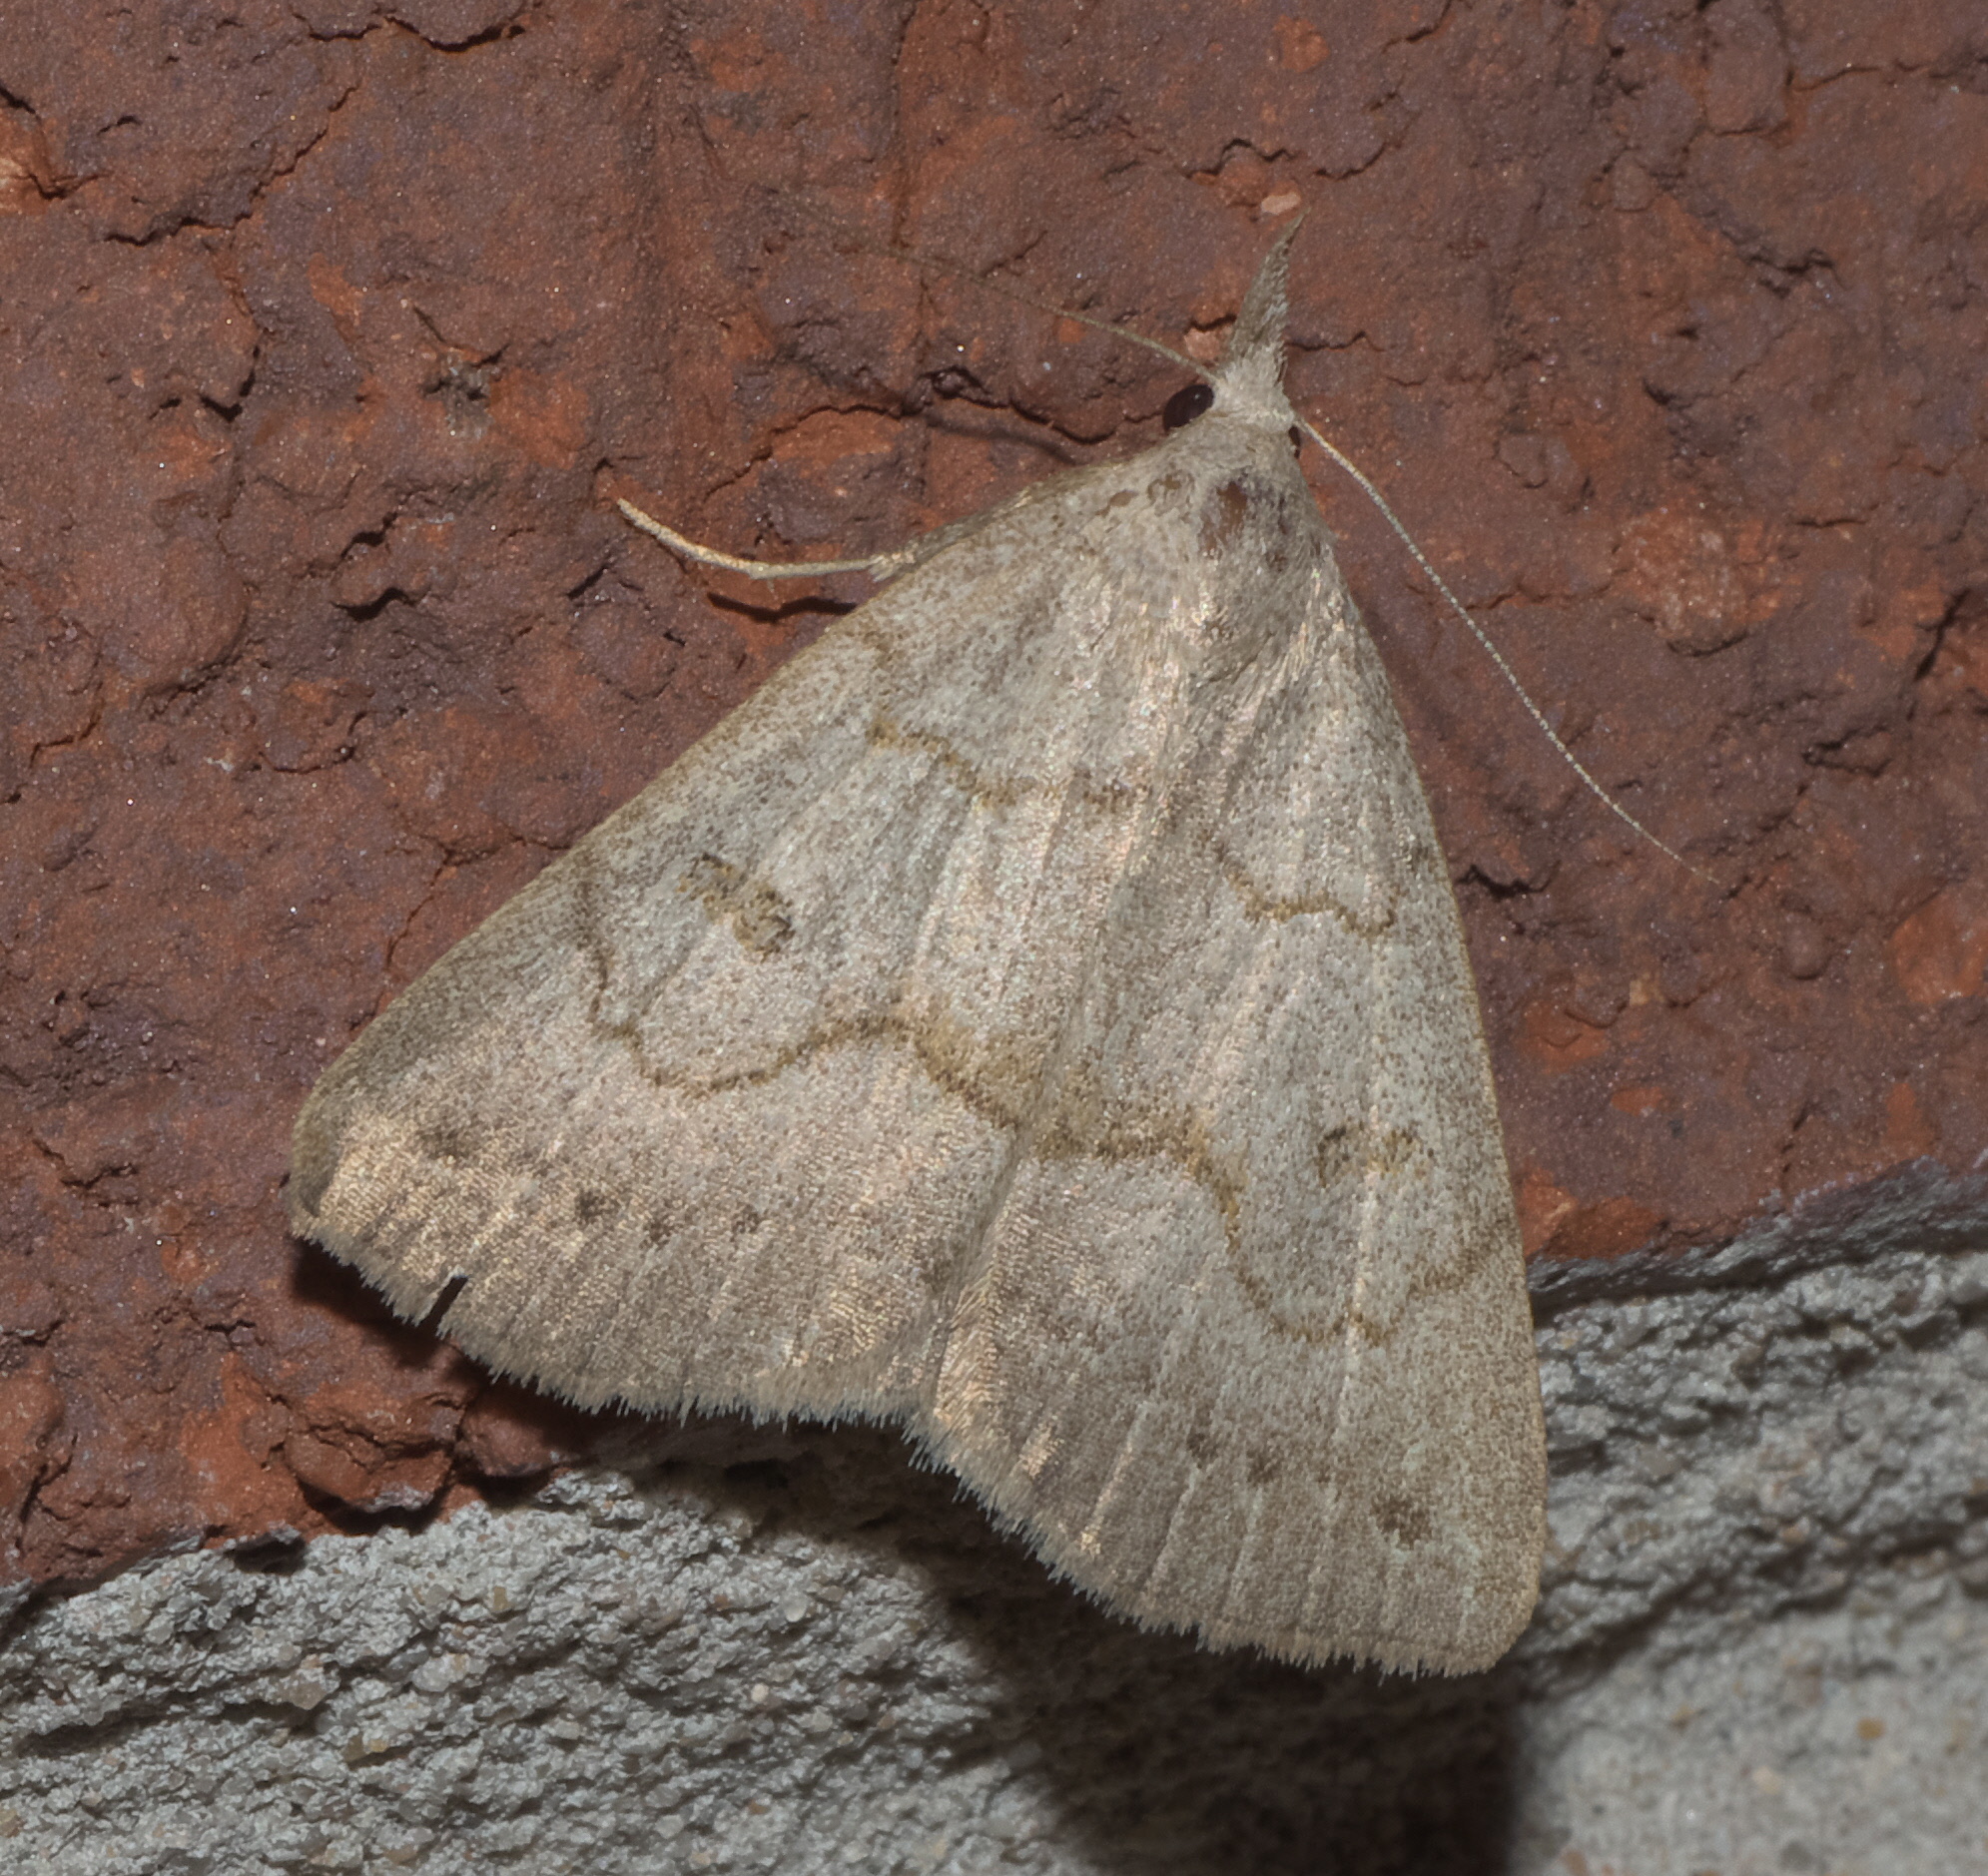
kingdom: Animalia
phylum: Arthropoda
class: Insecta
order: Lepidoptera
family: Erebidae
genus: Macrochilo
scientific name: Macrochilo morbidalis
